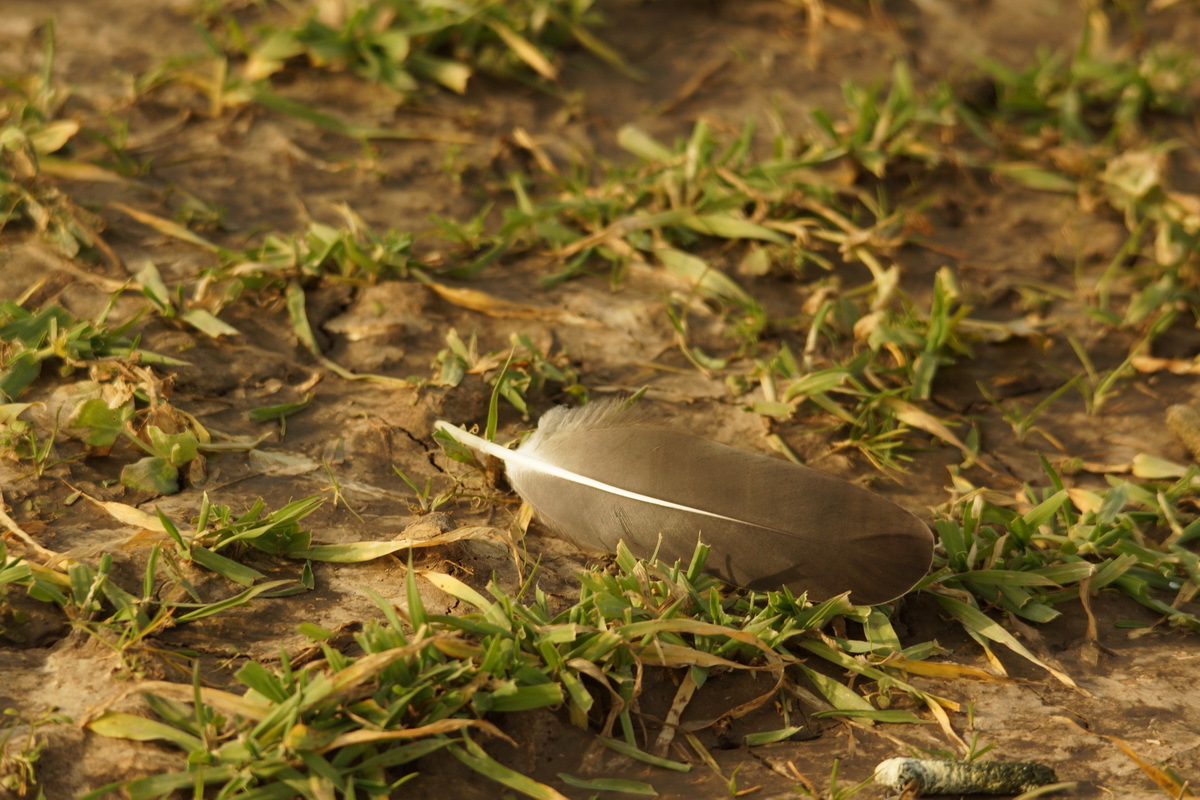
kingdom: Animalia
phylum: Chordata
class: Aves
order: Anseriformes
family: Anatidae
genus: Anser
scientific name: Anser albifrons
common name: Greater white-fronted goose
